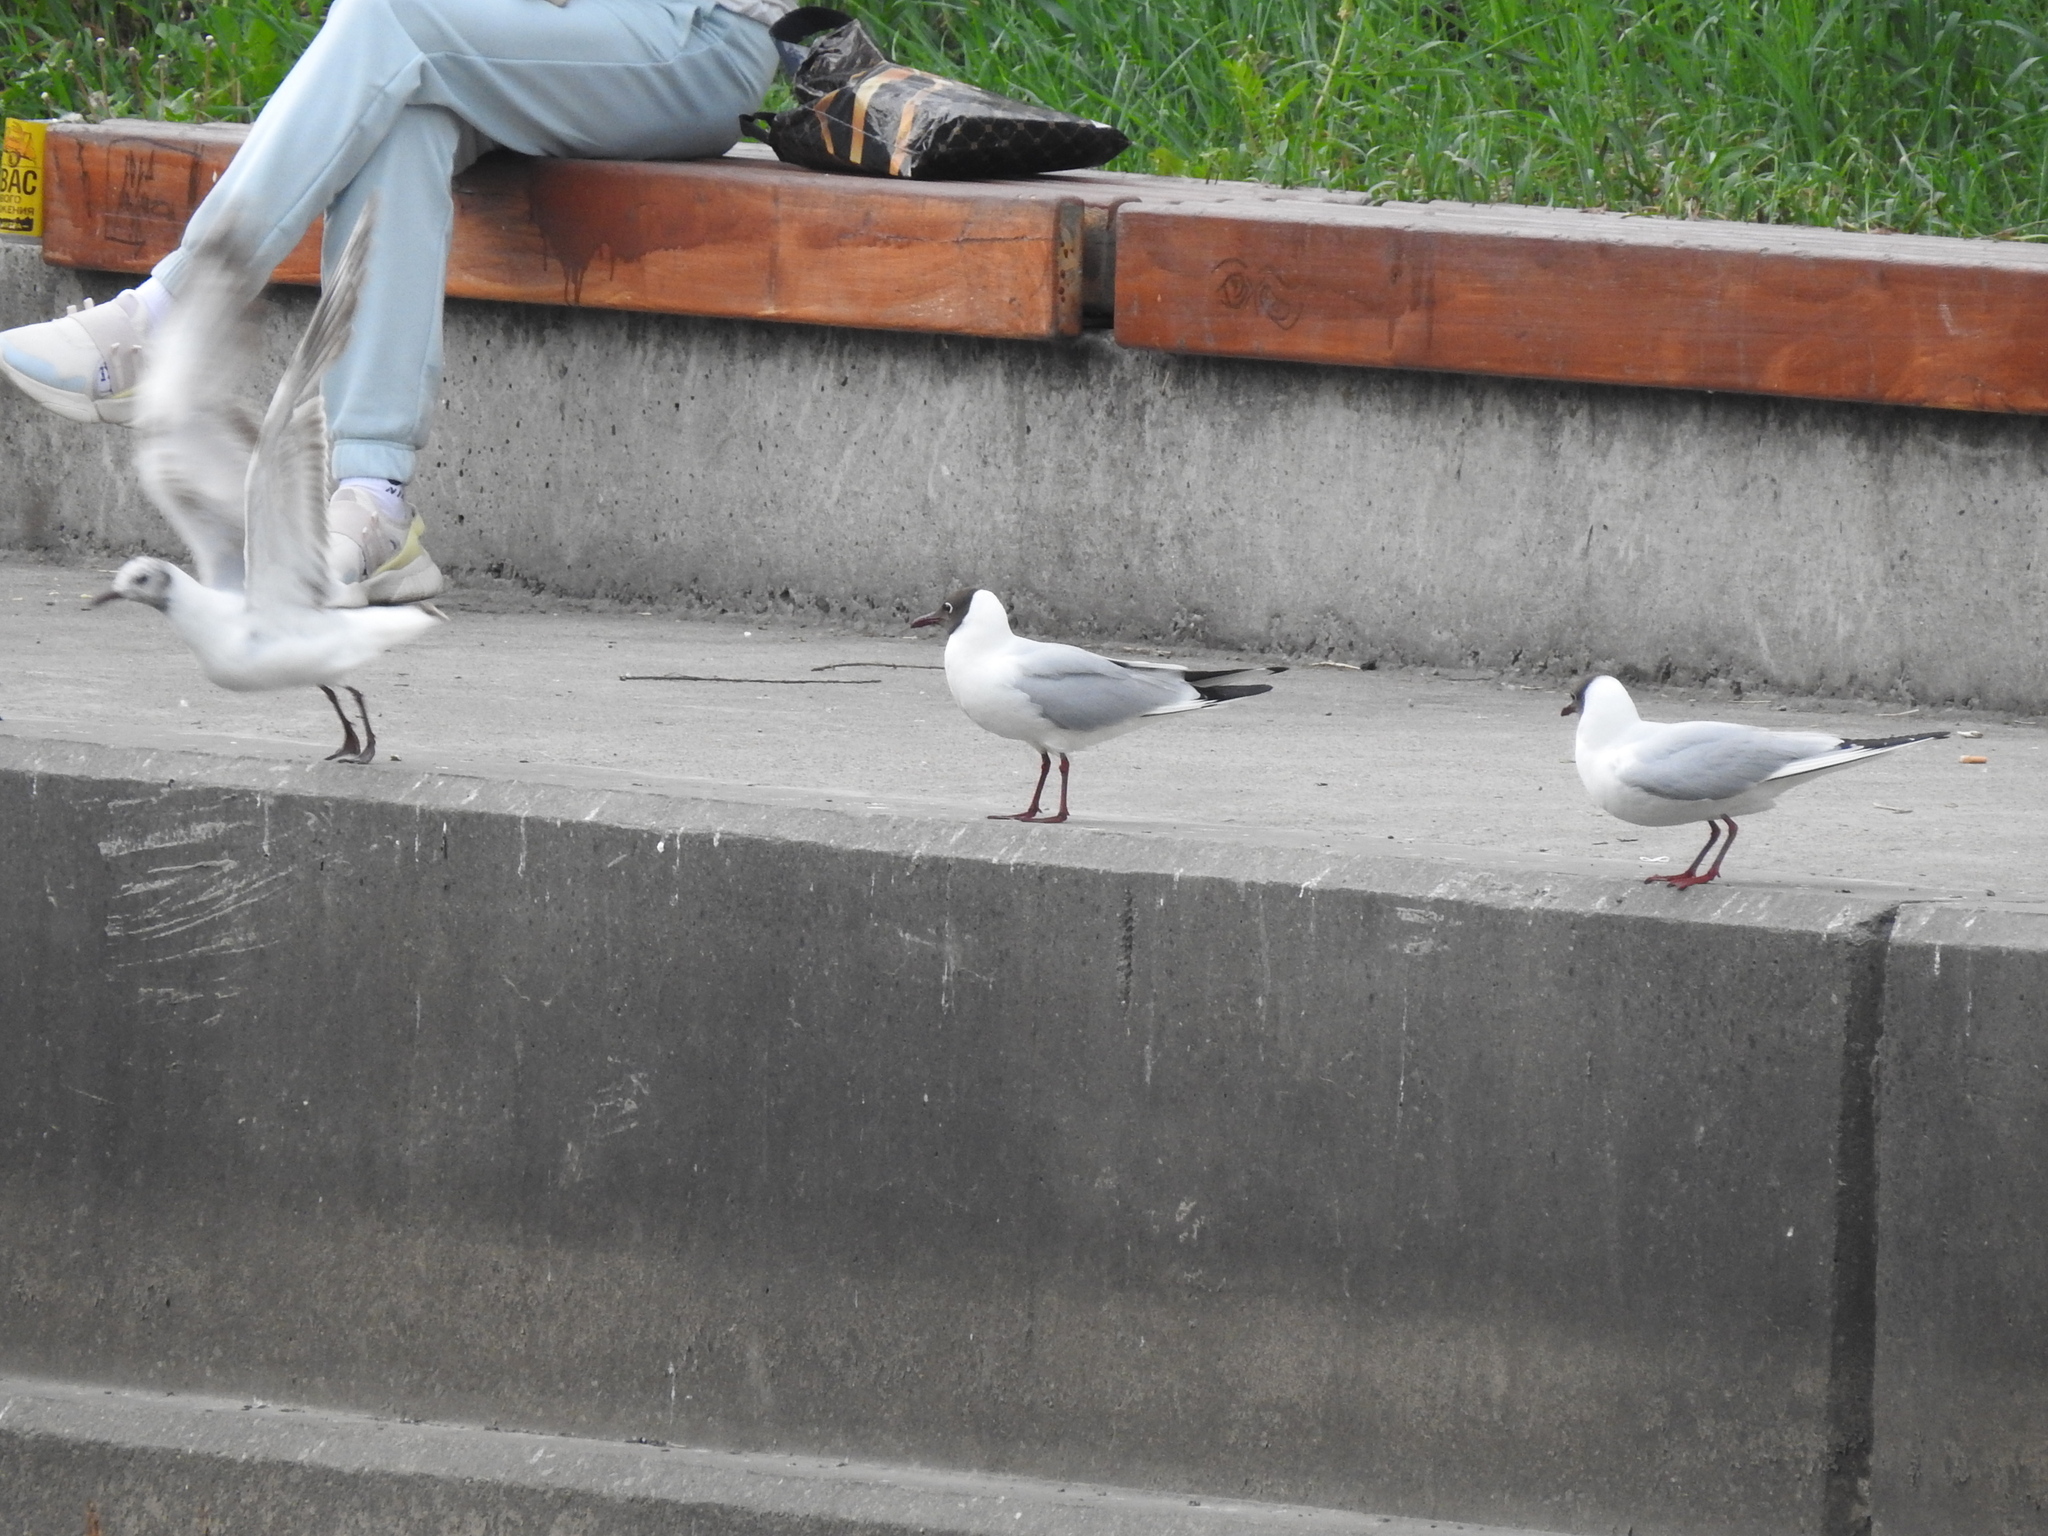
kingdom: Animalia
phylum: Chordata
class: Aves
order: Charadriiformes
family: Laridae
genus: Chroicocephalus
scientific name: Chroicocephalus ridibundus
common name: Black-headed gull
